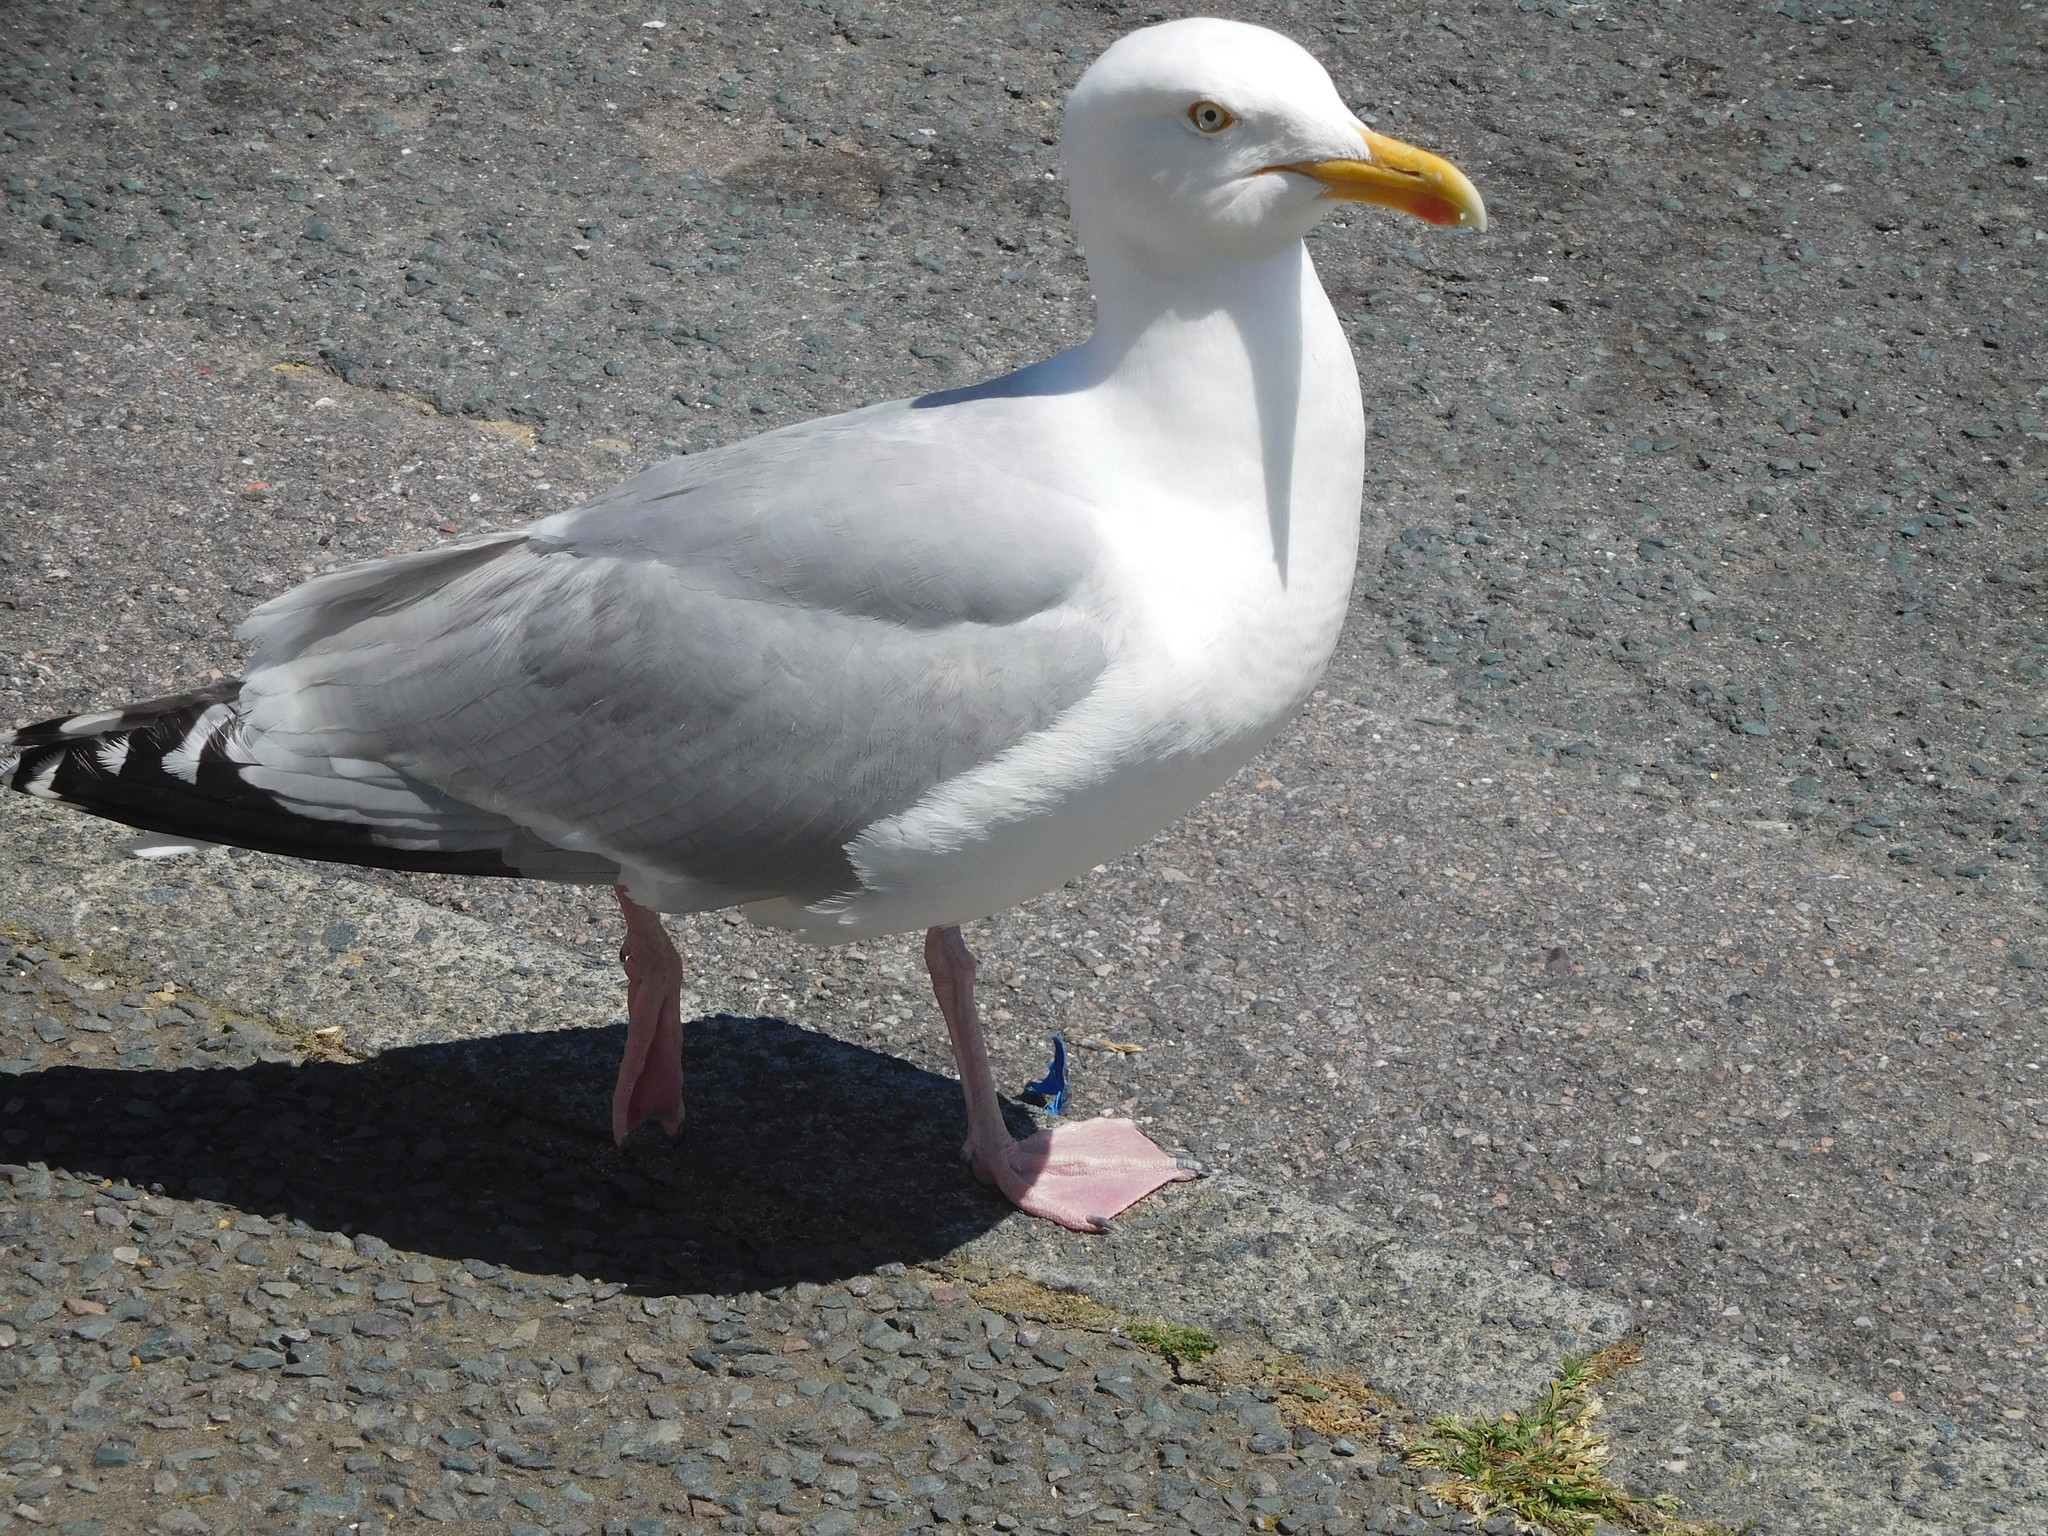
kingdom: Animalia
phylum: Chordata
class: Aves
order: Charadriiformes
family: Laridae
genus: Larus
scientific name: Larus argentatus
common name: Herring gull
